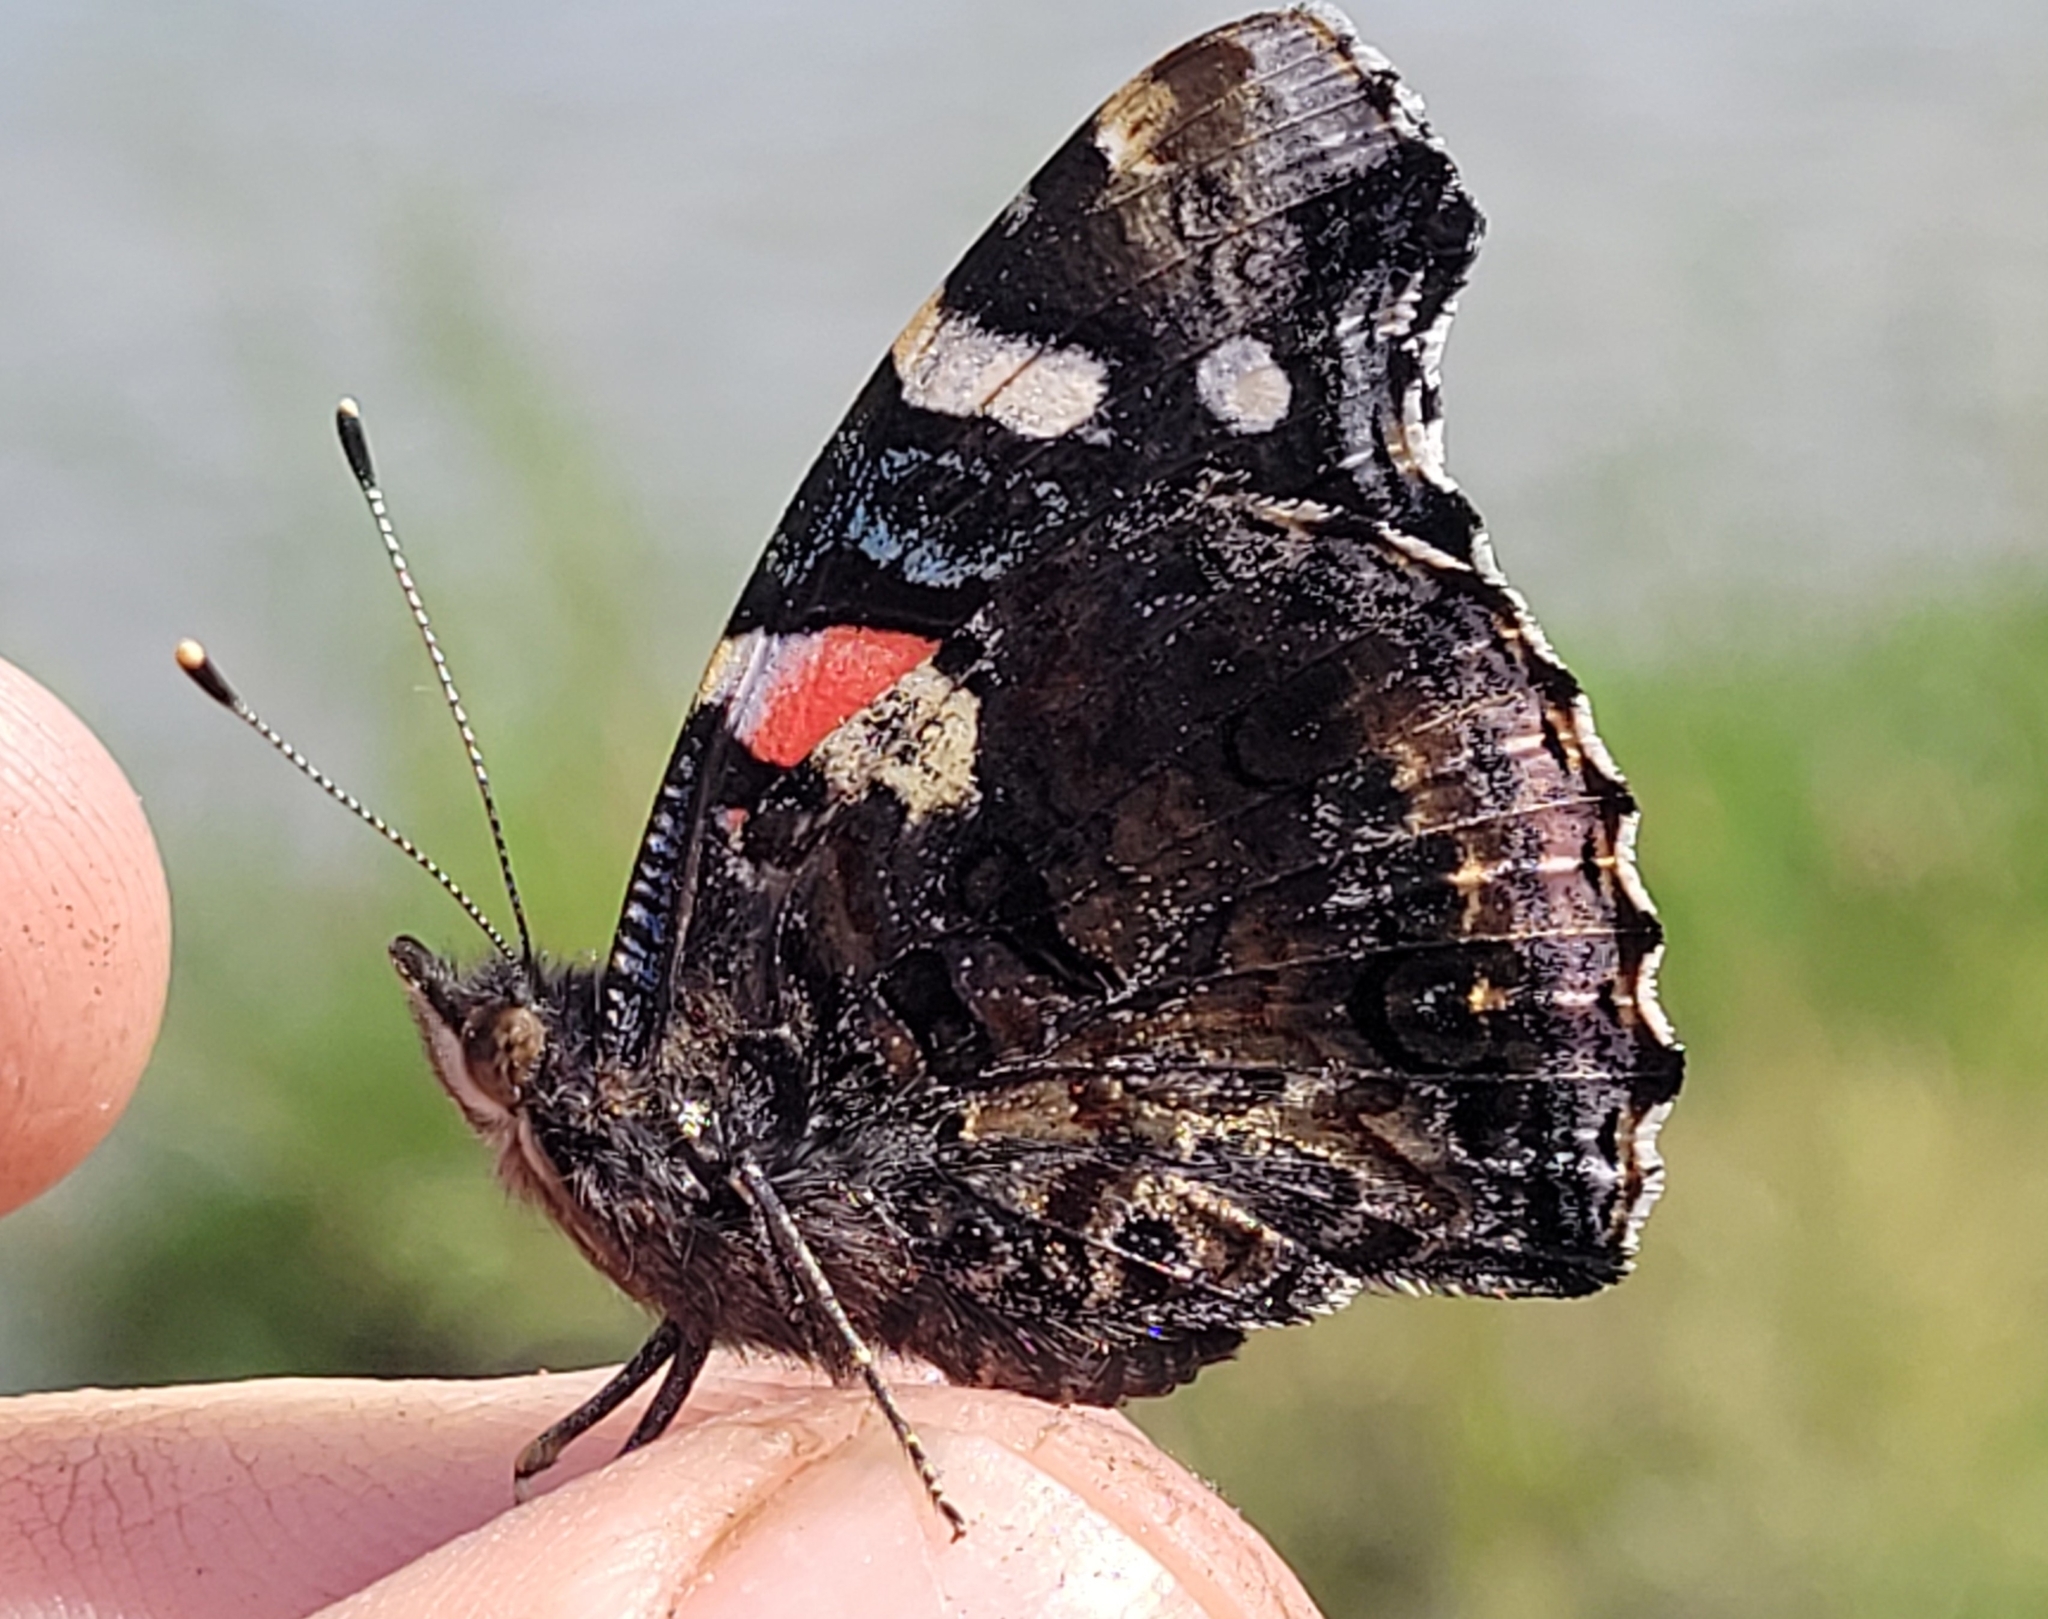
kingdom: Animalia
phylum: Arthropoda
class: Insecta
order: Lepidoptera
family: Nymphalidae
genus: Vanessa
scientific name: Vanessa atalanta
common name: Red admiral
